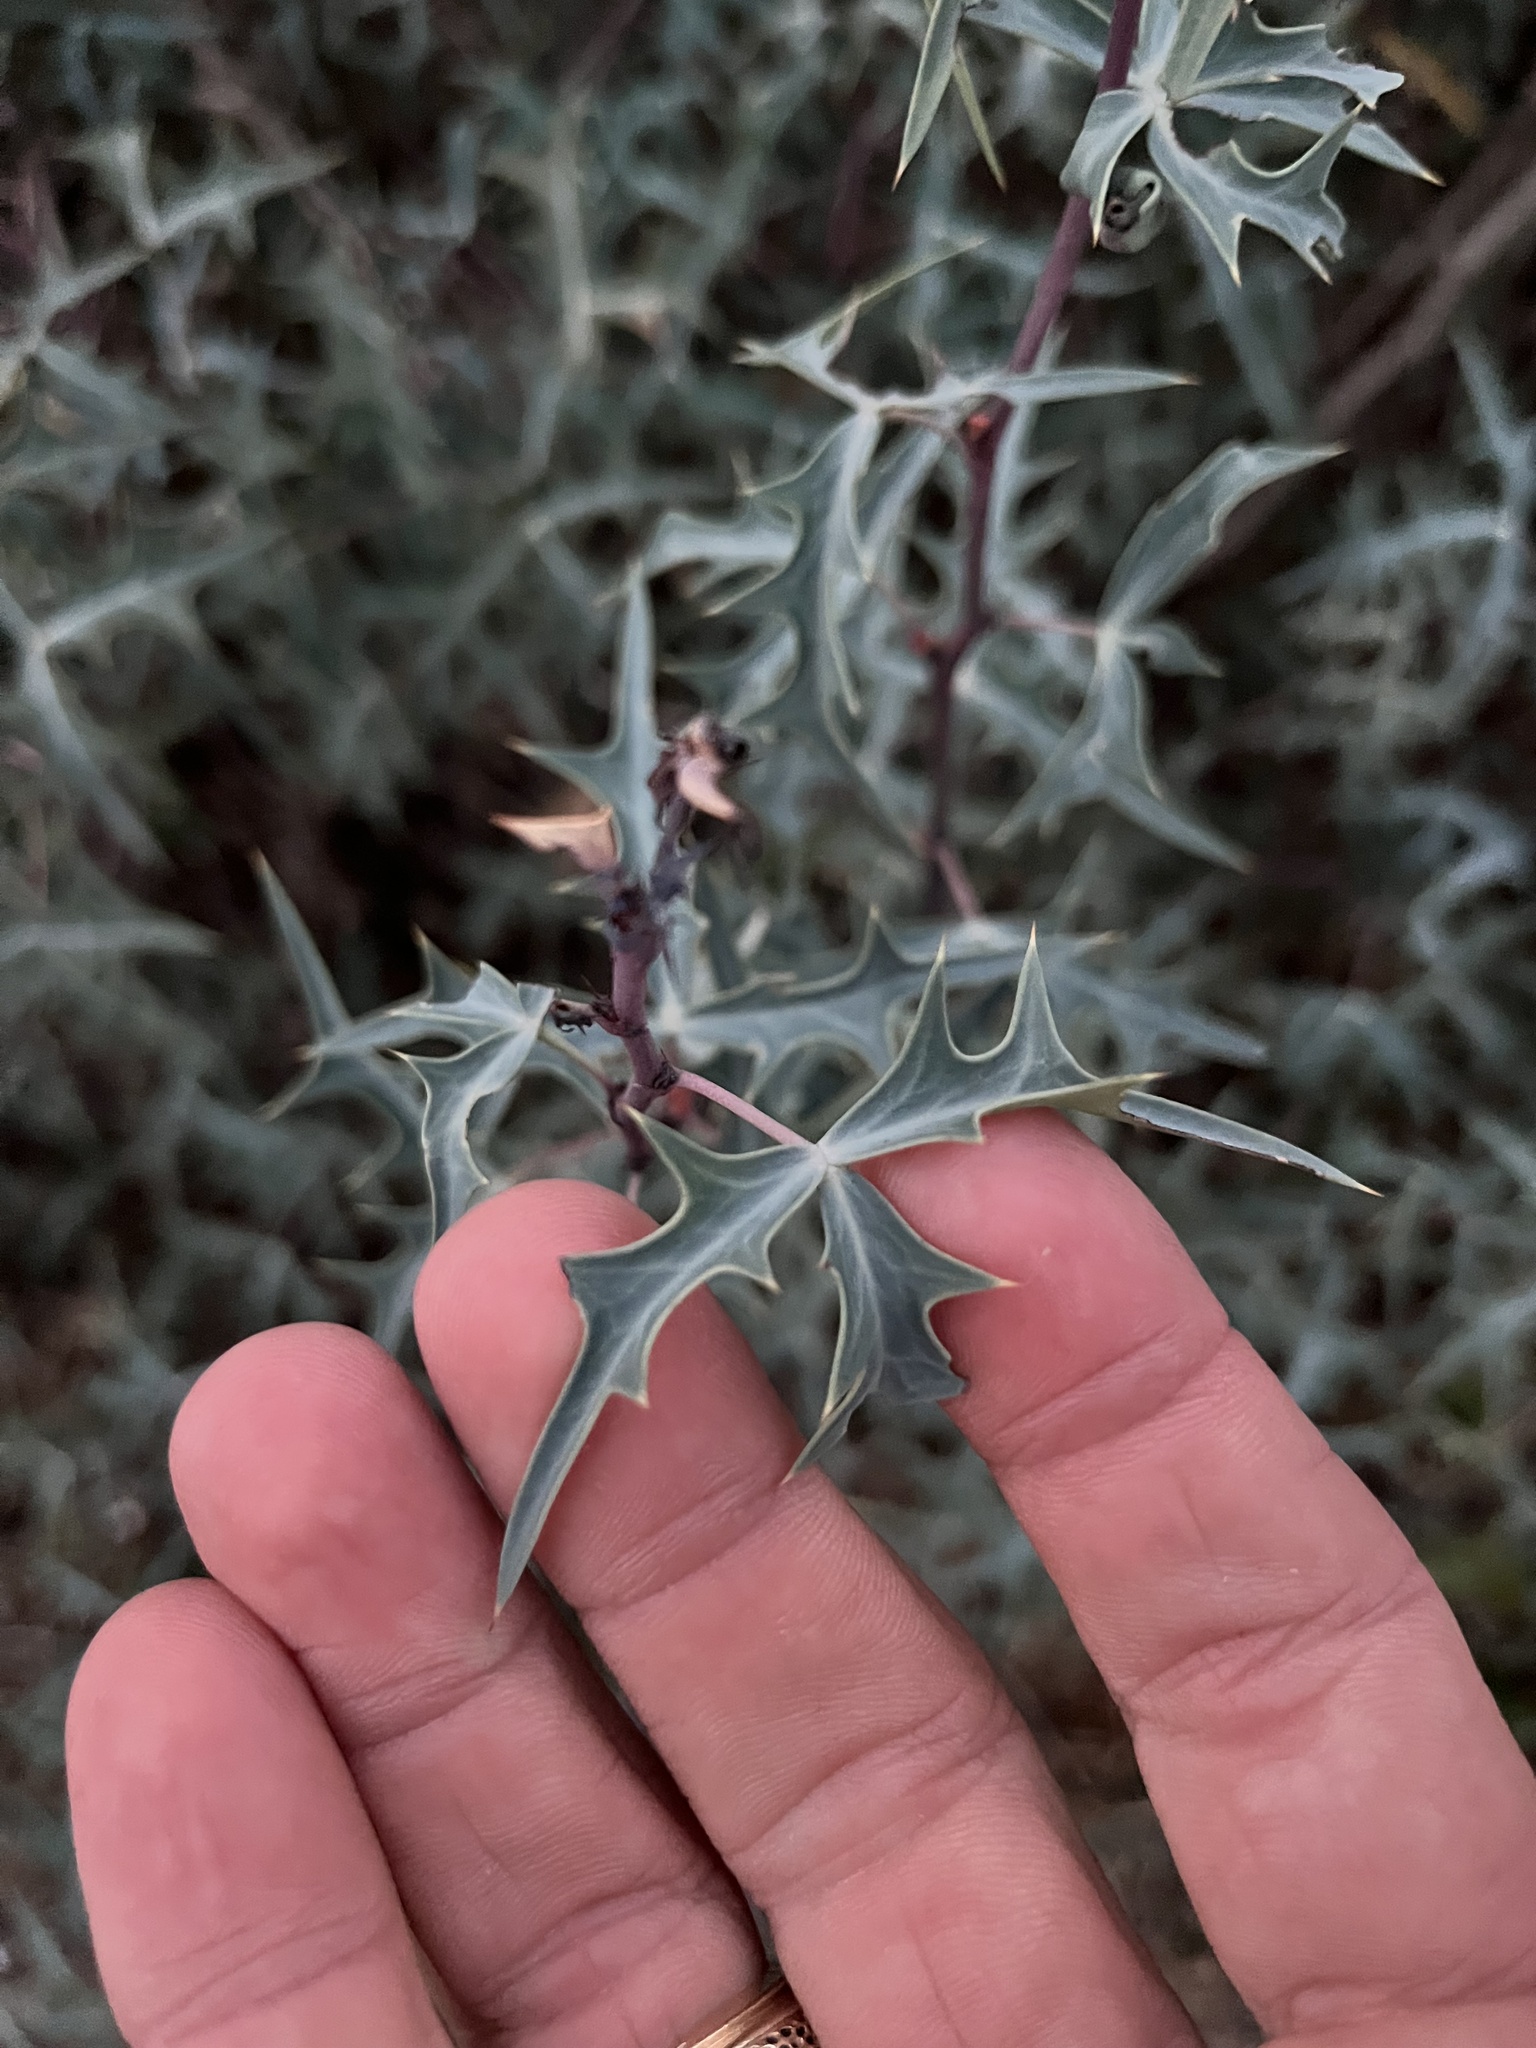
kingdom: Plantae
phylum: Tracheophyta
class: Magnoliopsida
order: Ranunculales
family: Berberidaceae
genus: Alloberberis
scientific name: Alloberberis trifoliolata
